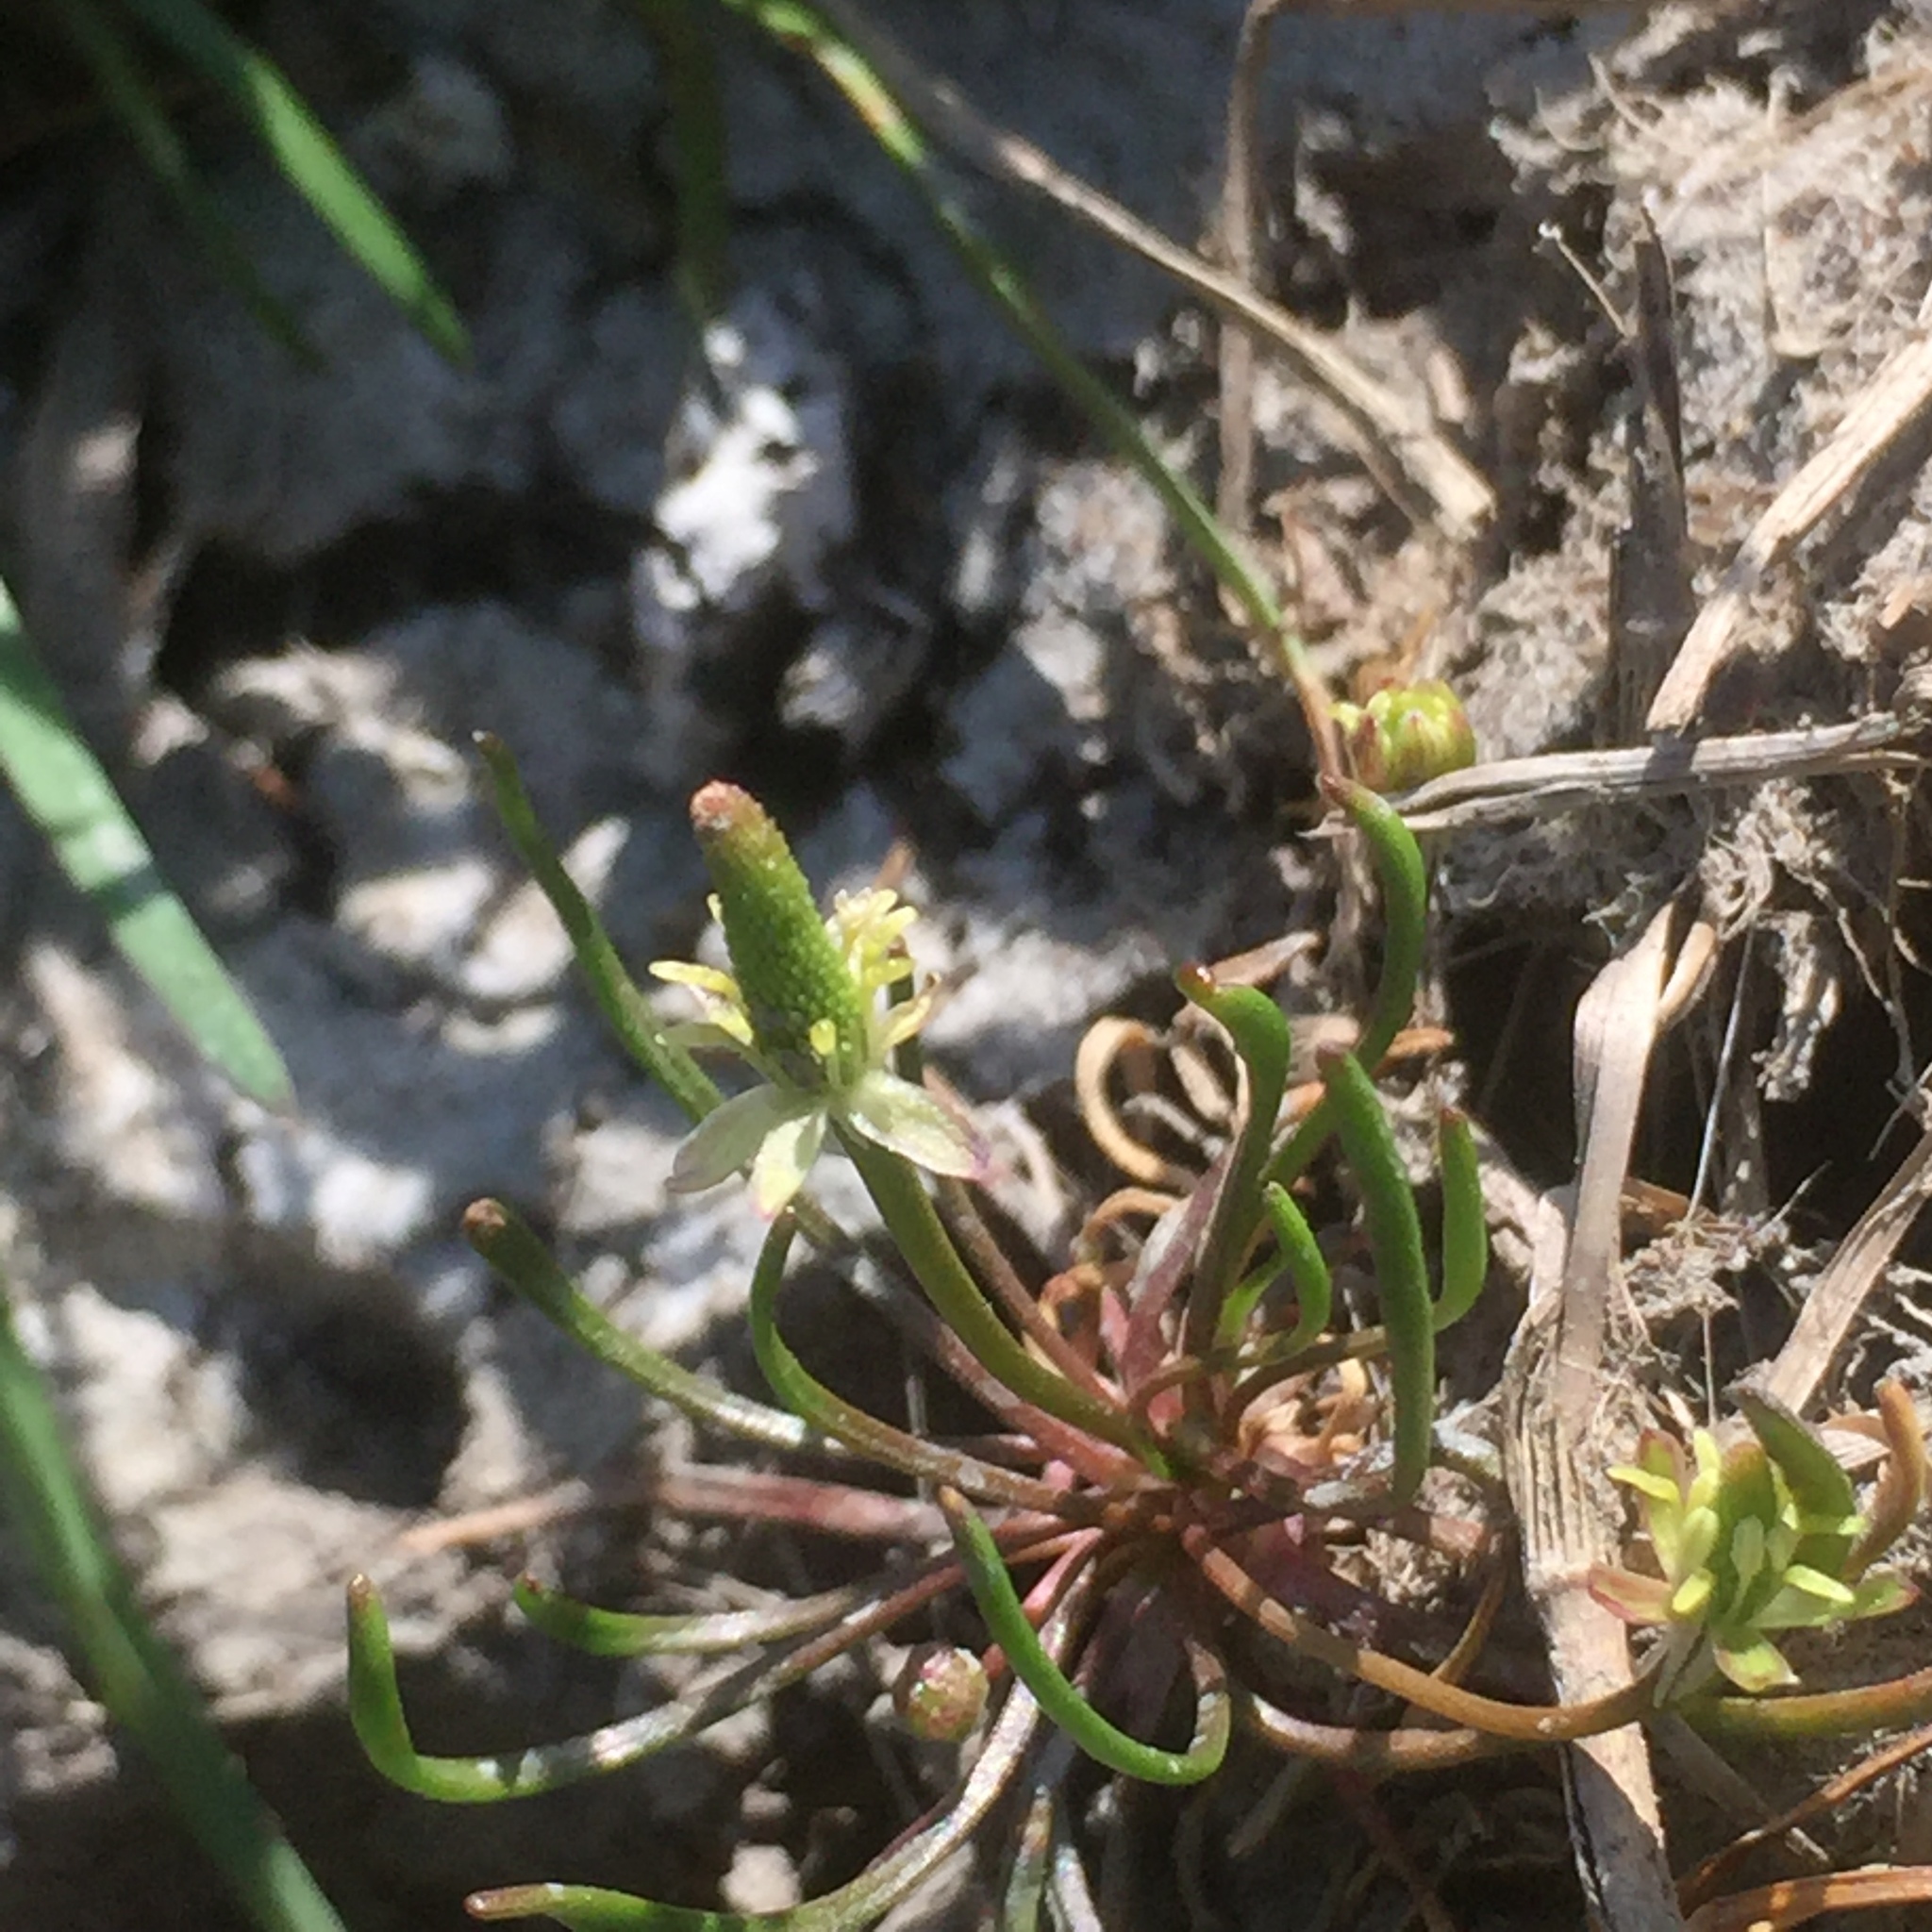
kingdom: Plantae
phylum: Tracheophyta
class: Magnoliopsida
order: Ranunculales
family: Ranunculaceae
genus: Myosurus
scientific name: Myosurus minimus
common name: Mousetail
